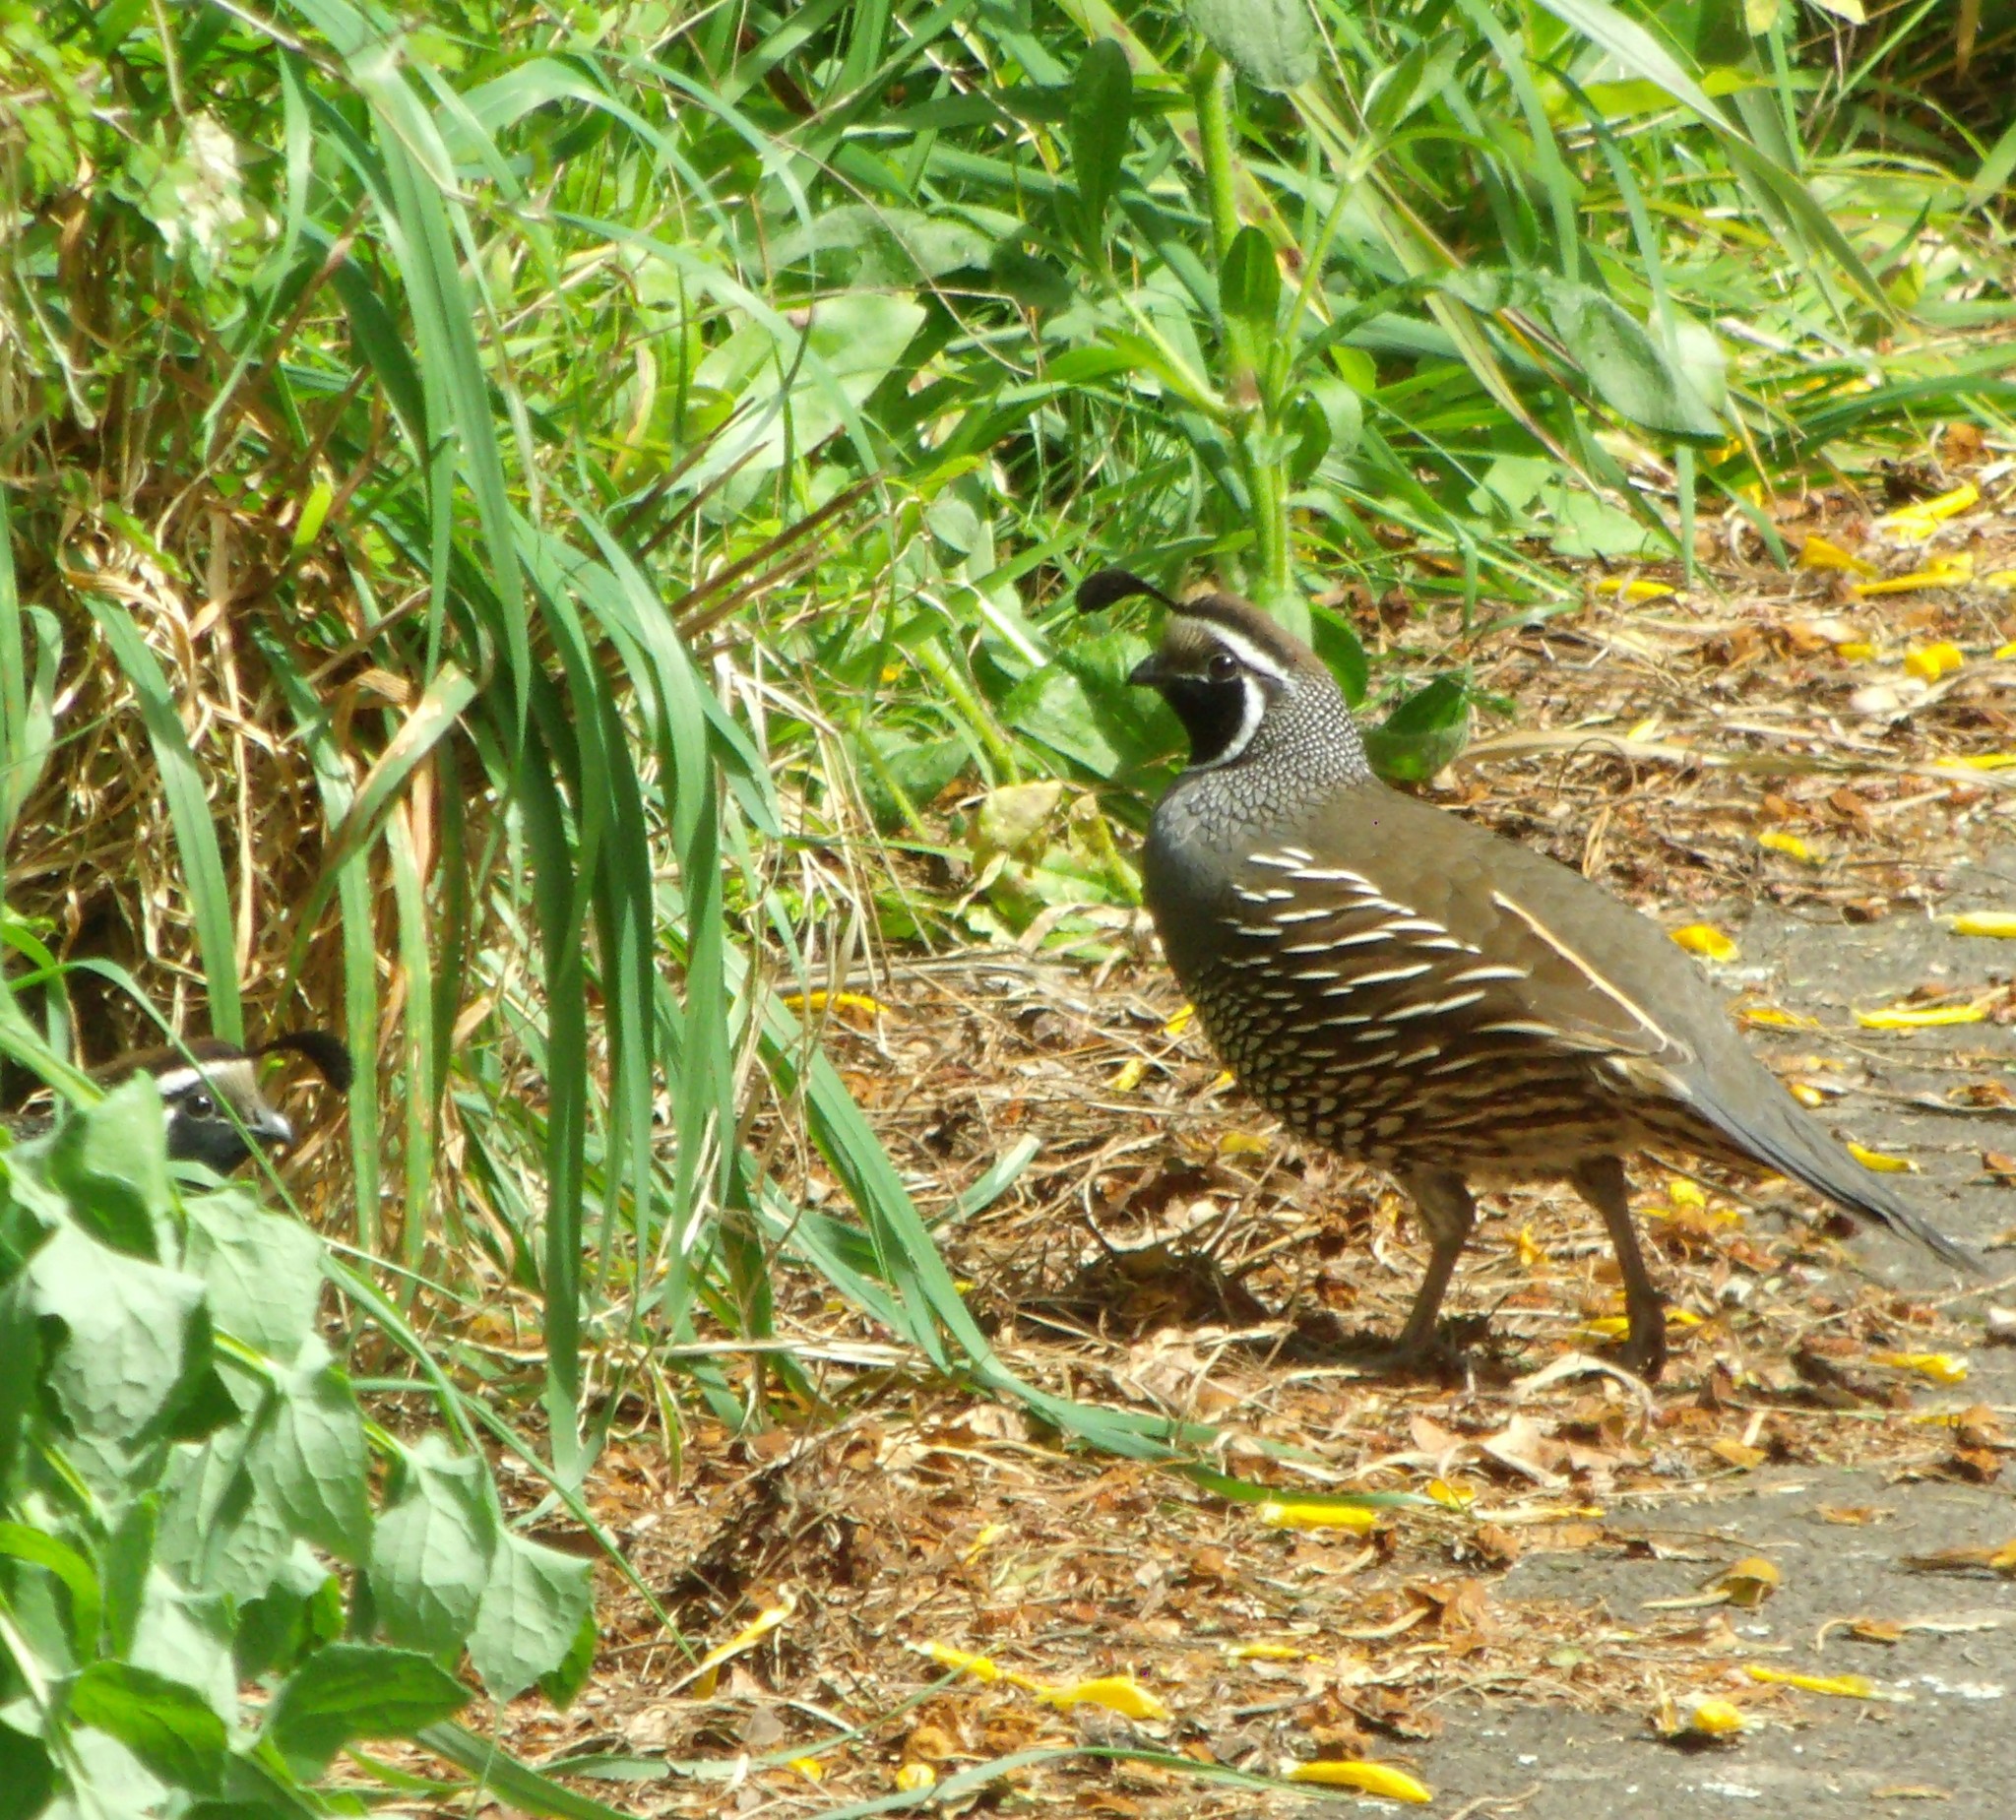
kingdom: Animalia
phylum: Chordata
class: Aves
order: Galliformes
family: Odontophoridae
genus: Callipepla
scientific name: Callipepla californica
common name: California quail
